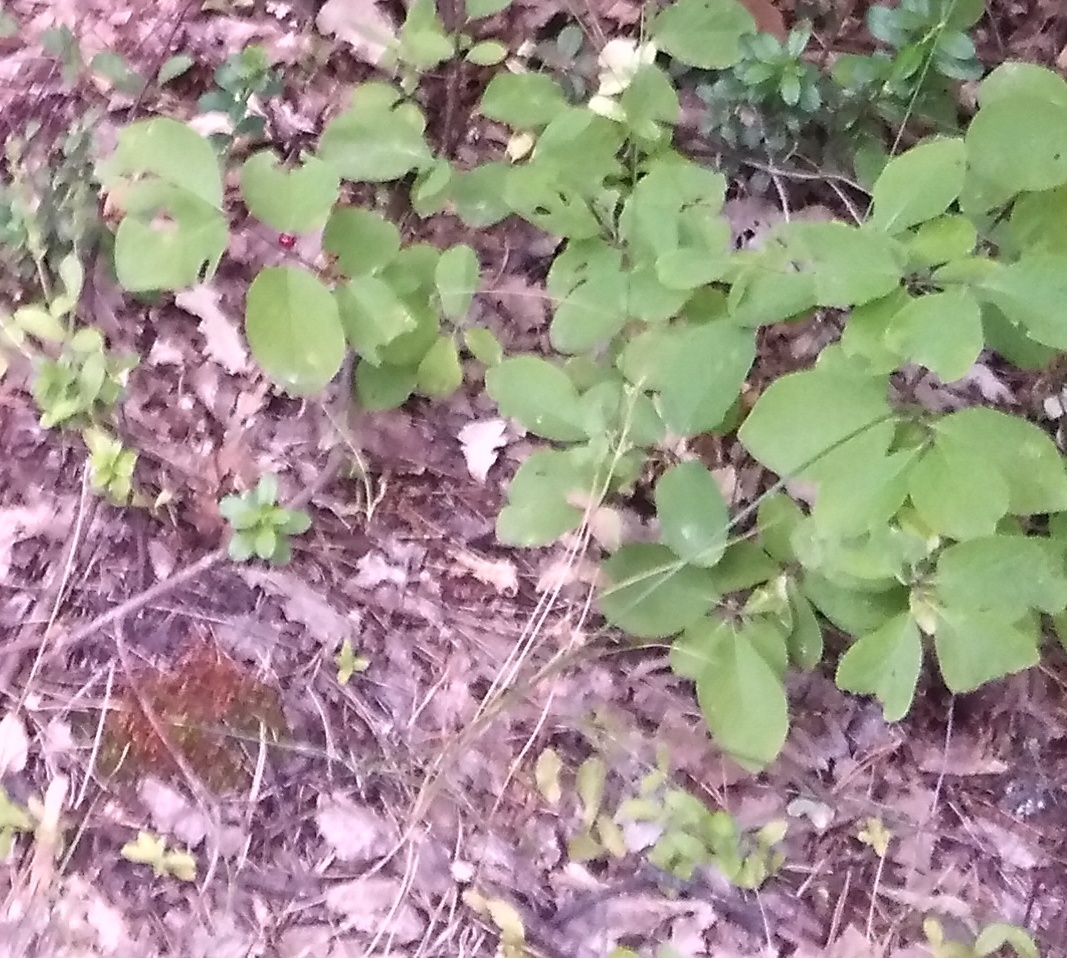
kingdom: Plantae
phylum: Tracheophyta
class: Magnoliopsida
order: Dipsacales
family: Caprifoliaceae
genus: Lonicera
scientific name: Lonicera xylosteum
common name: Fly honeysuckle
